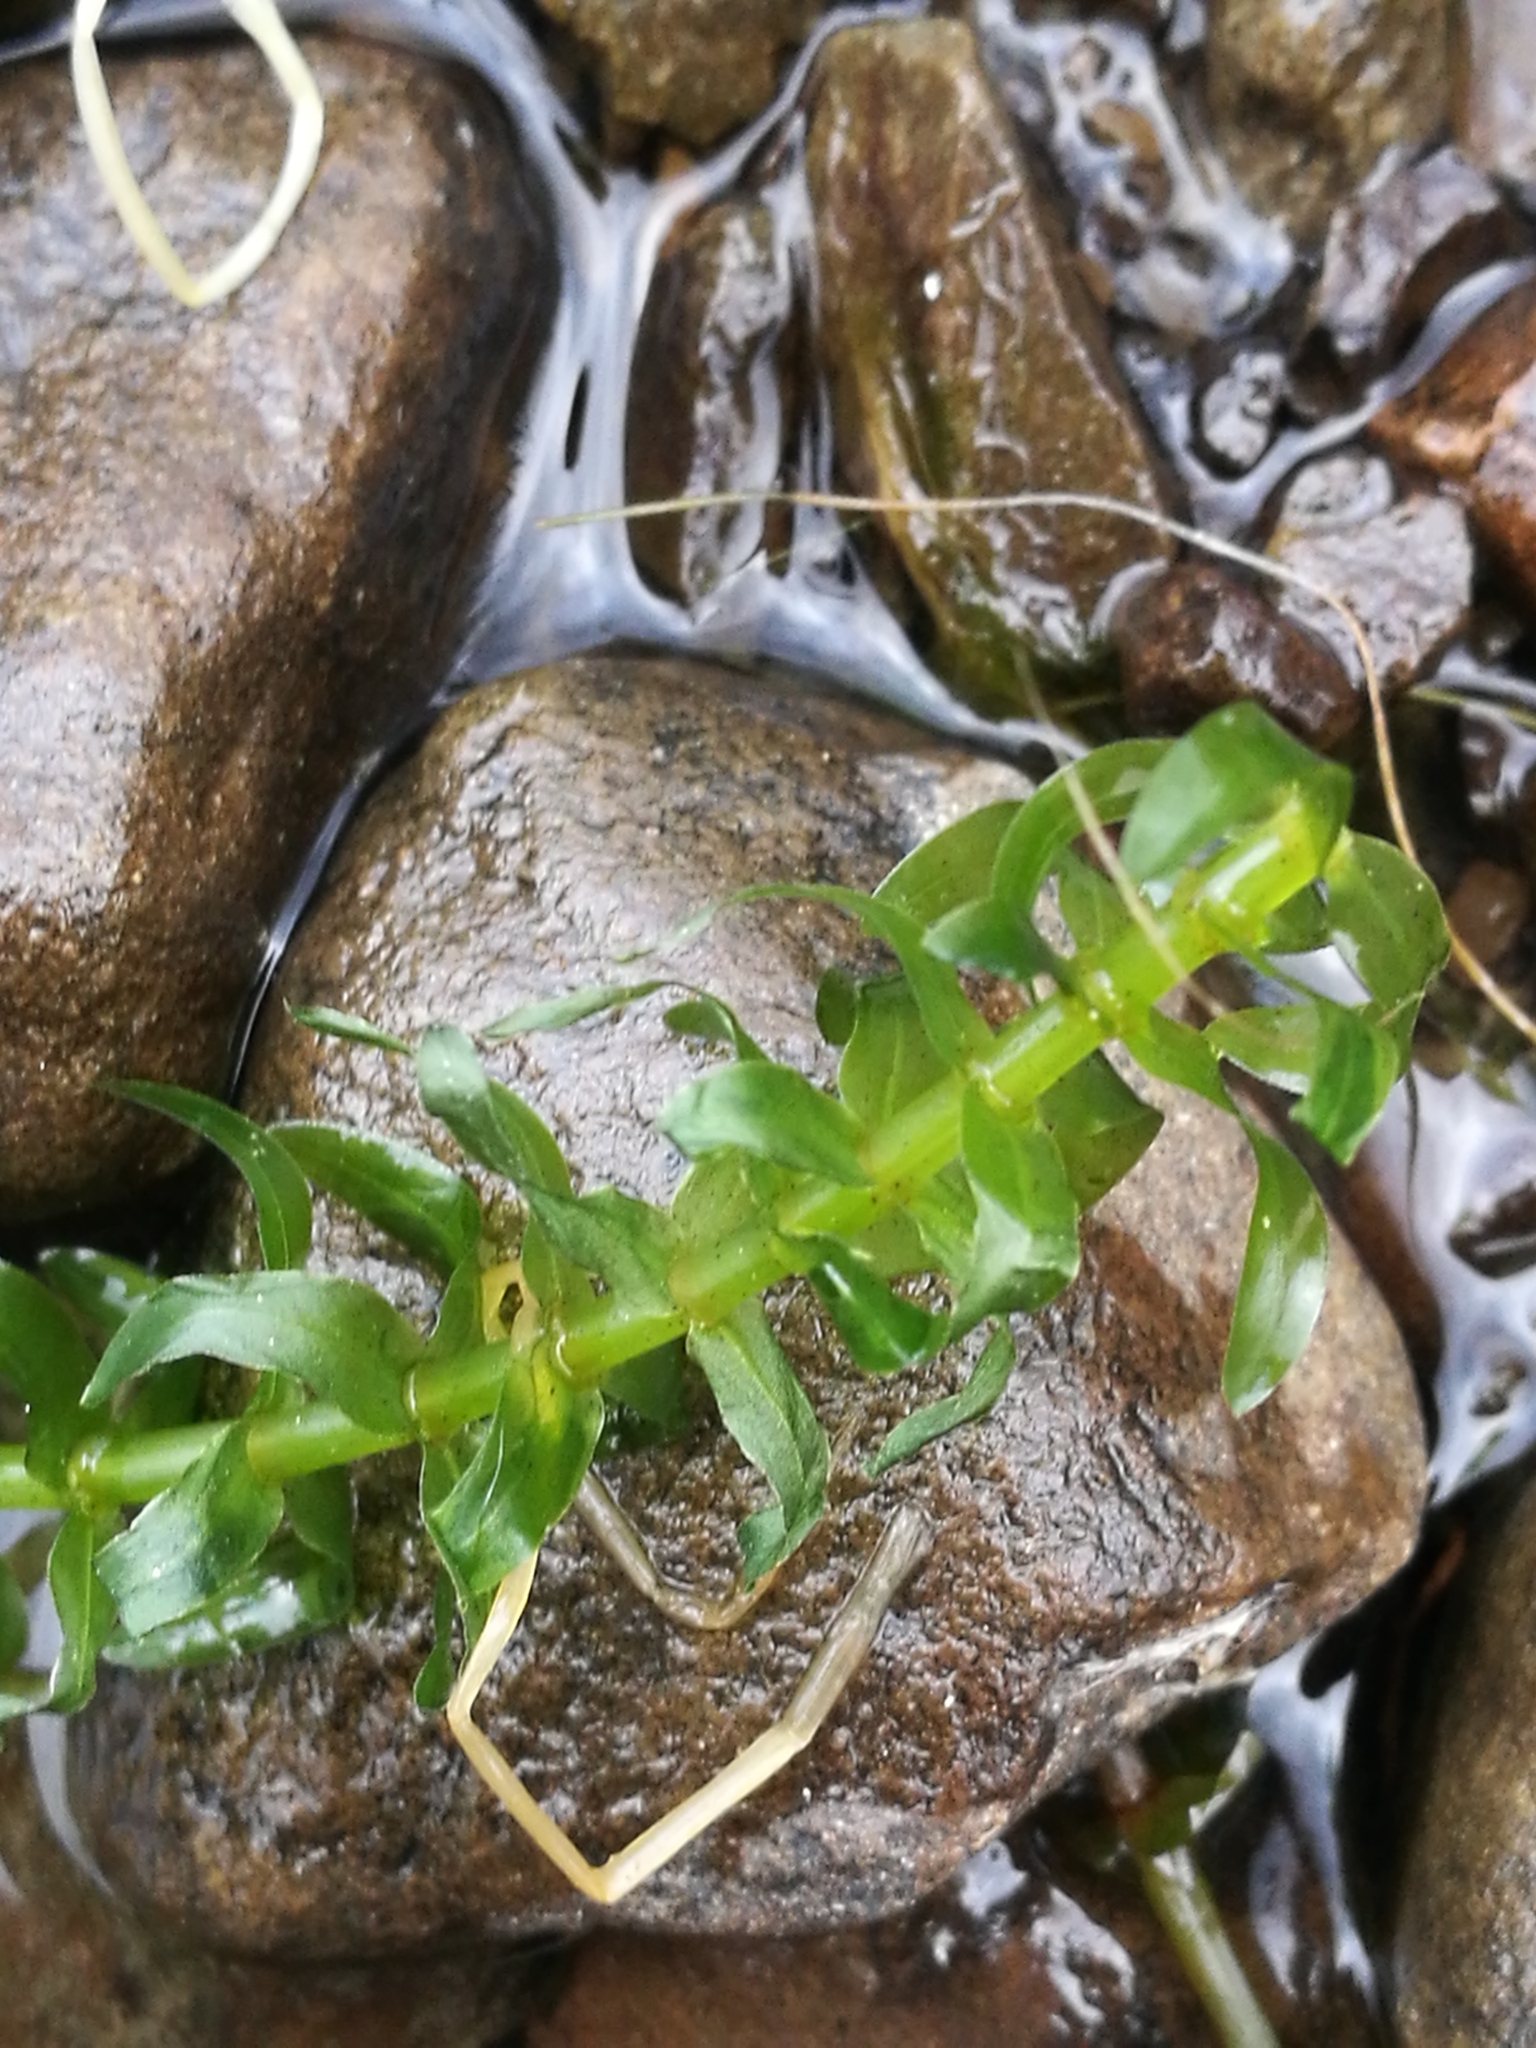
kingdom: Plantae
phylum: Tracheophyta
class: Liliopsida
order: Alismatales
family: Hydrocharitaceae
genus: Elodea
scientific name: Elodea canadensis
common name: Canadian waterweed
